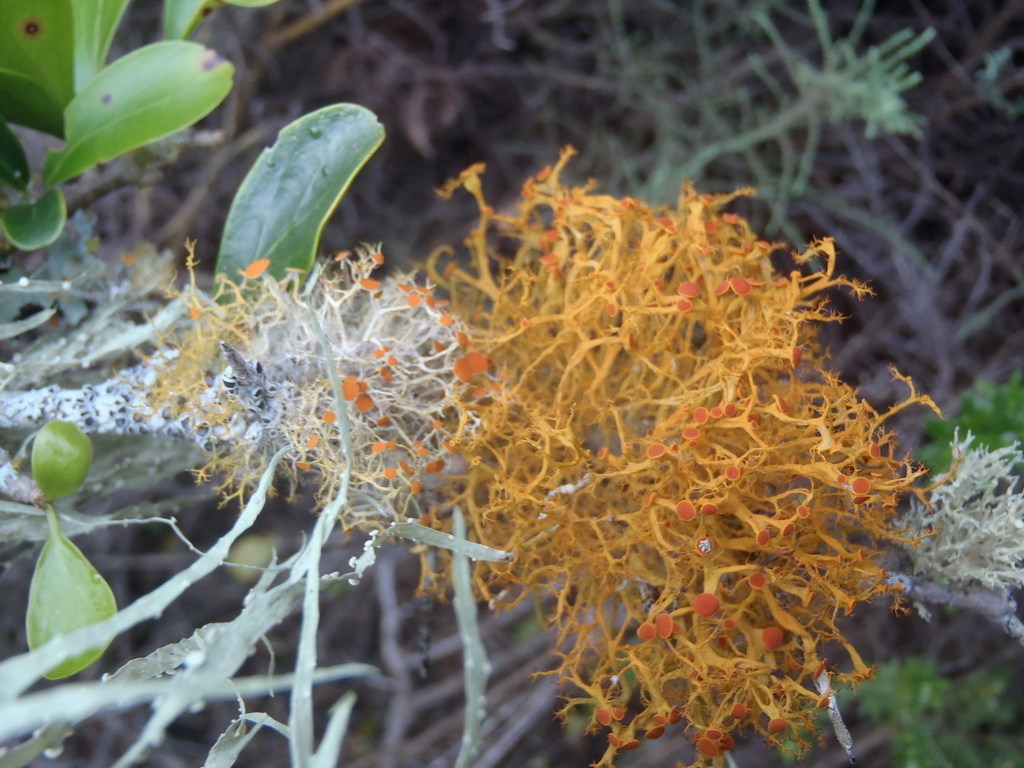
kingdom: Fungi
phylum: Ascomycota
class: Lecanoromycetes
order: Teloschistales
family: Teloschistaceae
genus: Teloschistes
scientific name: Teloschistes exilis
